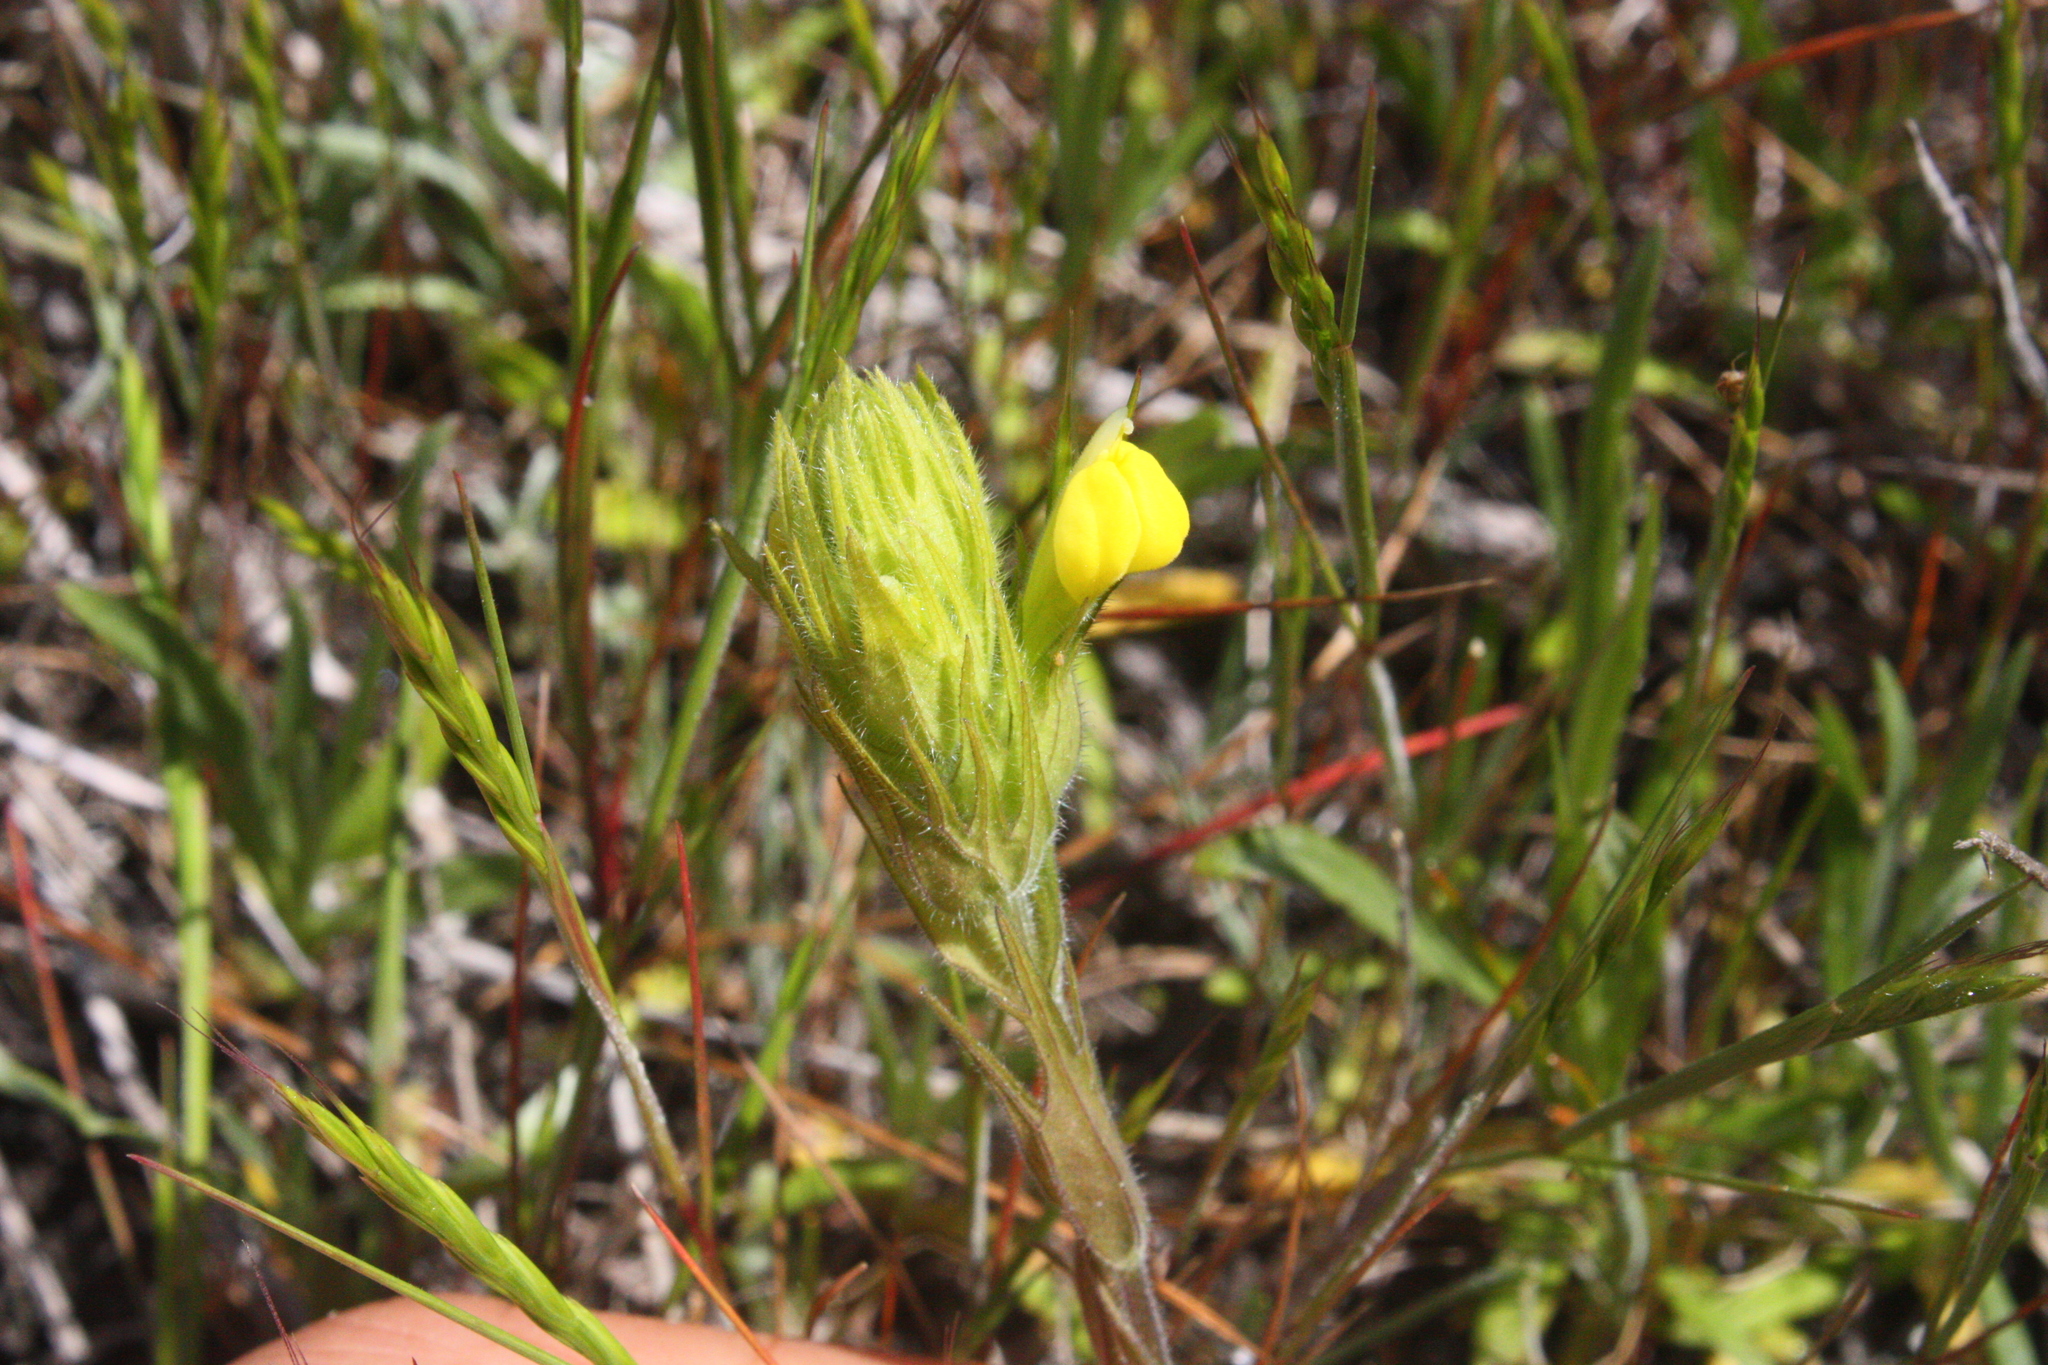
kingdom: Plantae
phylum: Tracheophyta
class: Magnoliopsida
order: Lamiales
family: Orobanchaceae
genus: Castilleja
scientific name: Castilleja rubicundula
